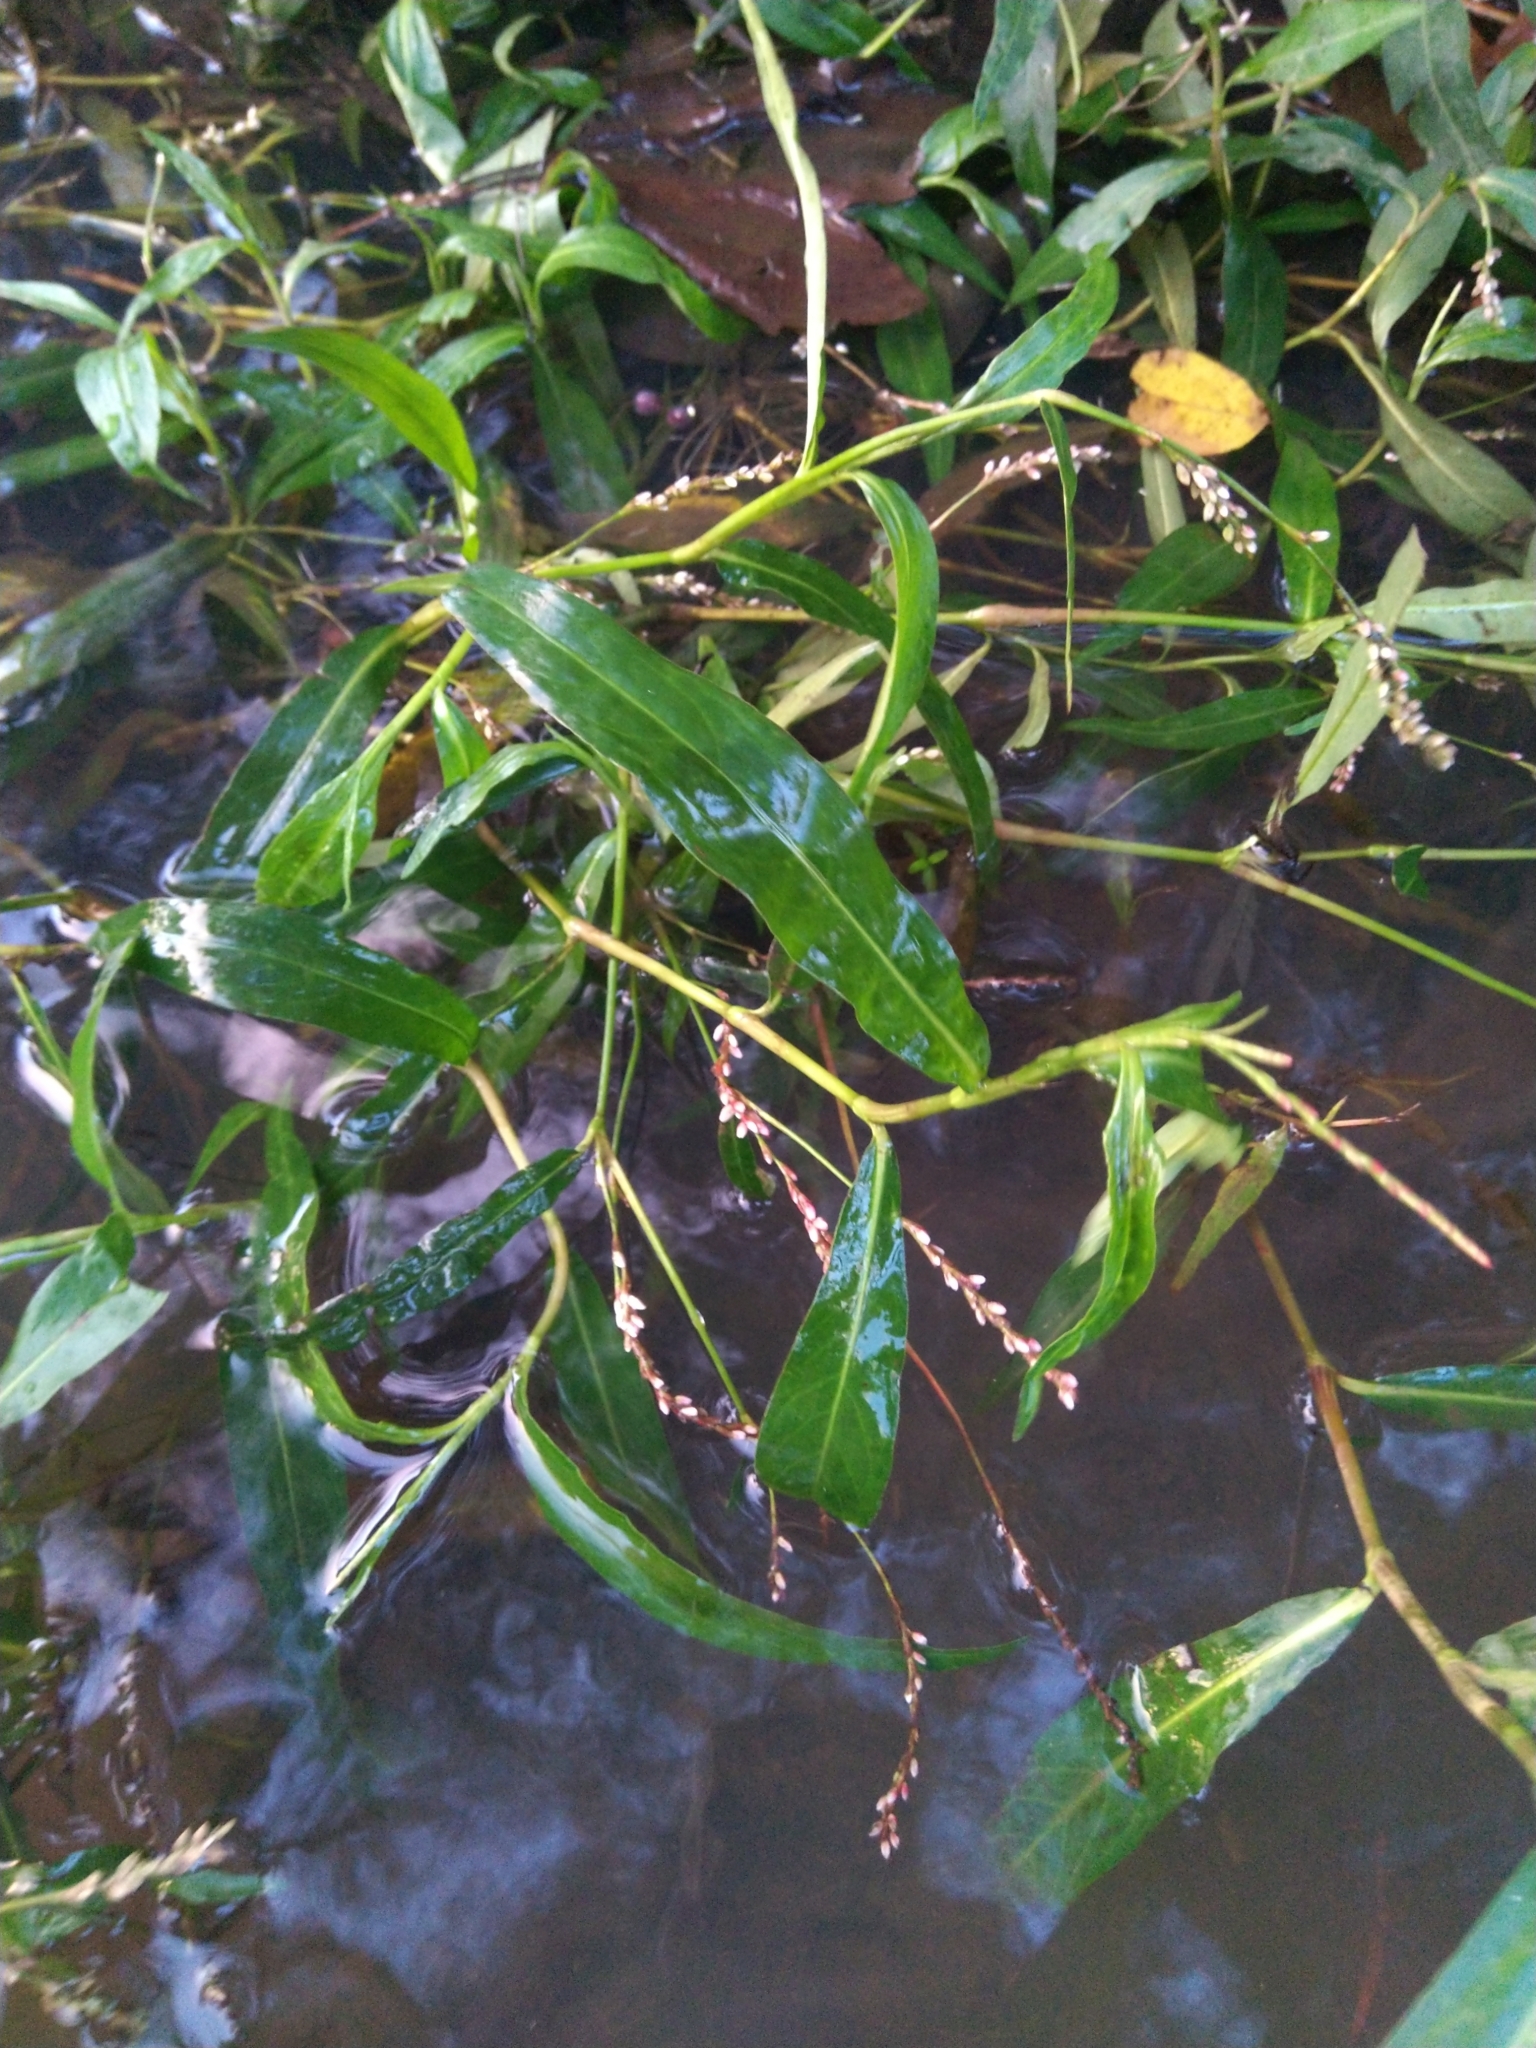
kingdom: Plantae
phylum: Tracheophyta
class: Magnoliopsida
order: Caryophyllales
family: Polygonaceae
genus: Persicaria
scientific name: Persicaria decipiens
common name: Willow-weed
